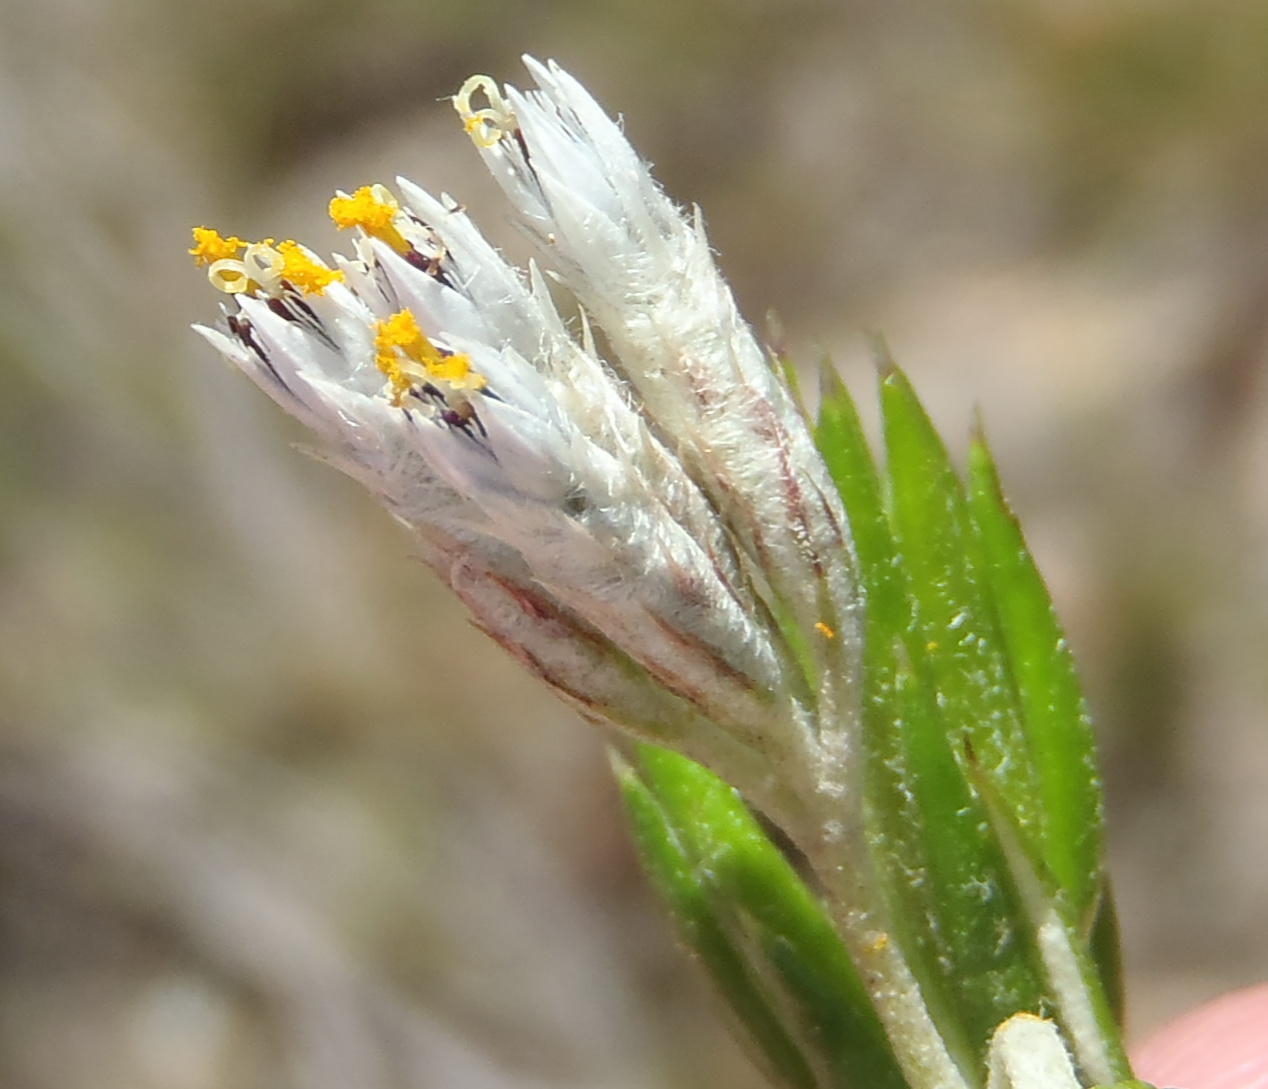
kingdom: Plantae
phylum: Tracheophyta
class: Magnoliopsida
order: Asterales
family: Asteraceae
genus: Metalasia
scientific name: Metalasia pallida
